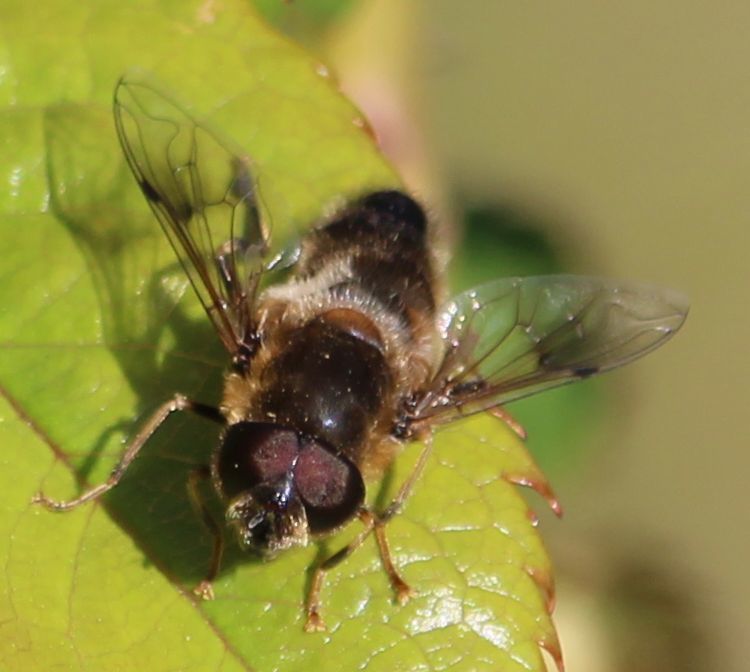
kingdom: Animalia
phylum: Arthropoda
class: Insecta
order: Diptera
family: Syrphidae
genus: Eristalis
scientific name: Eristalis pertinax
